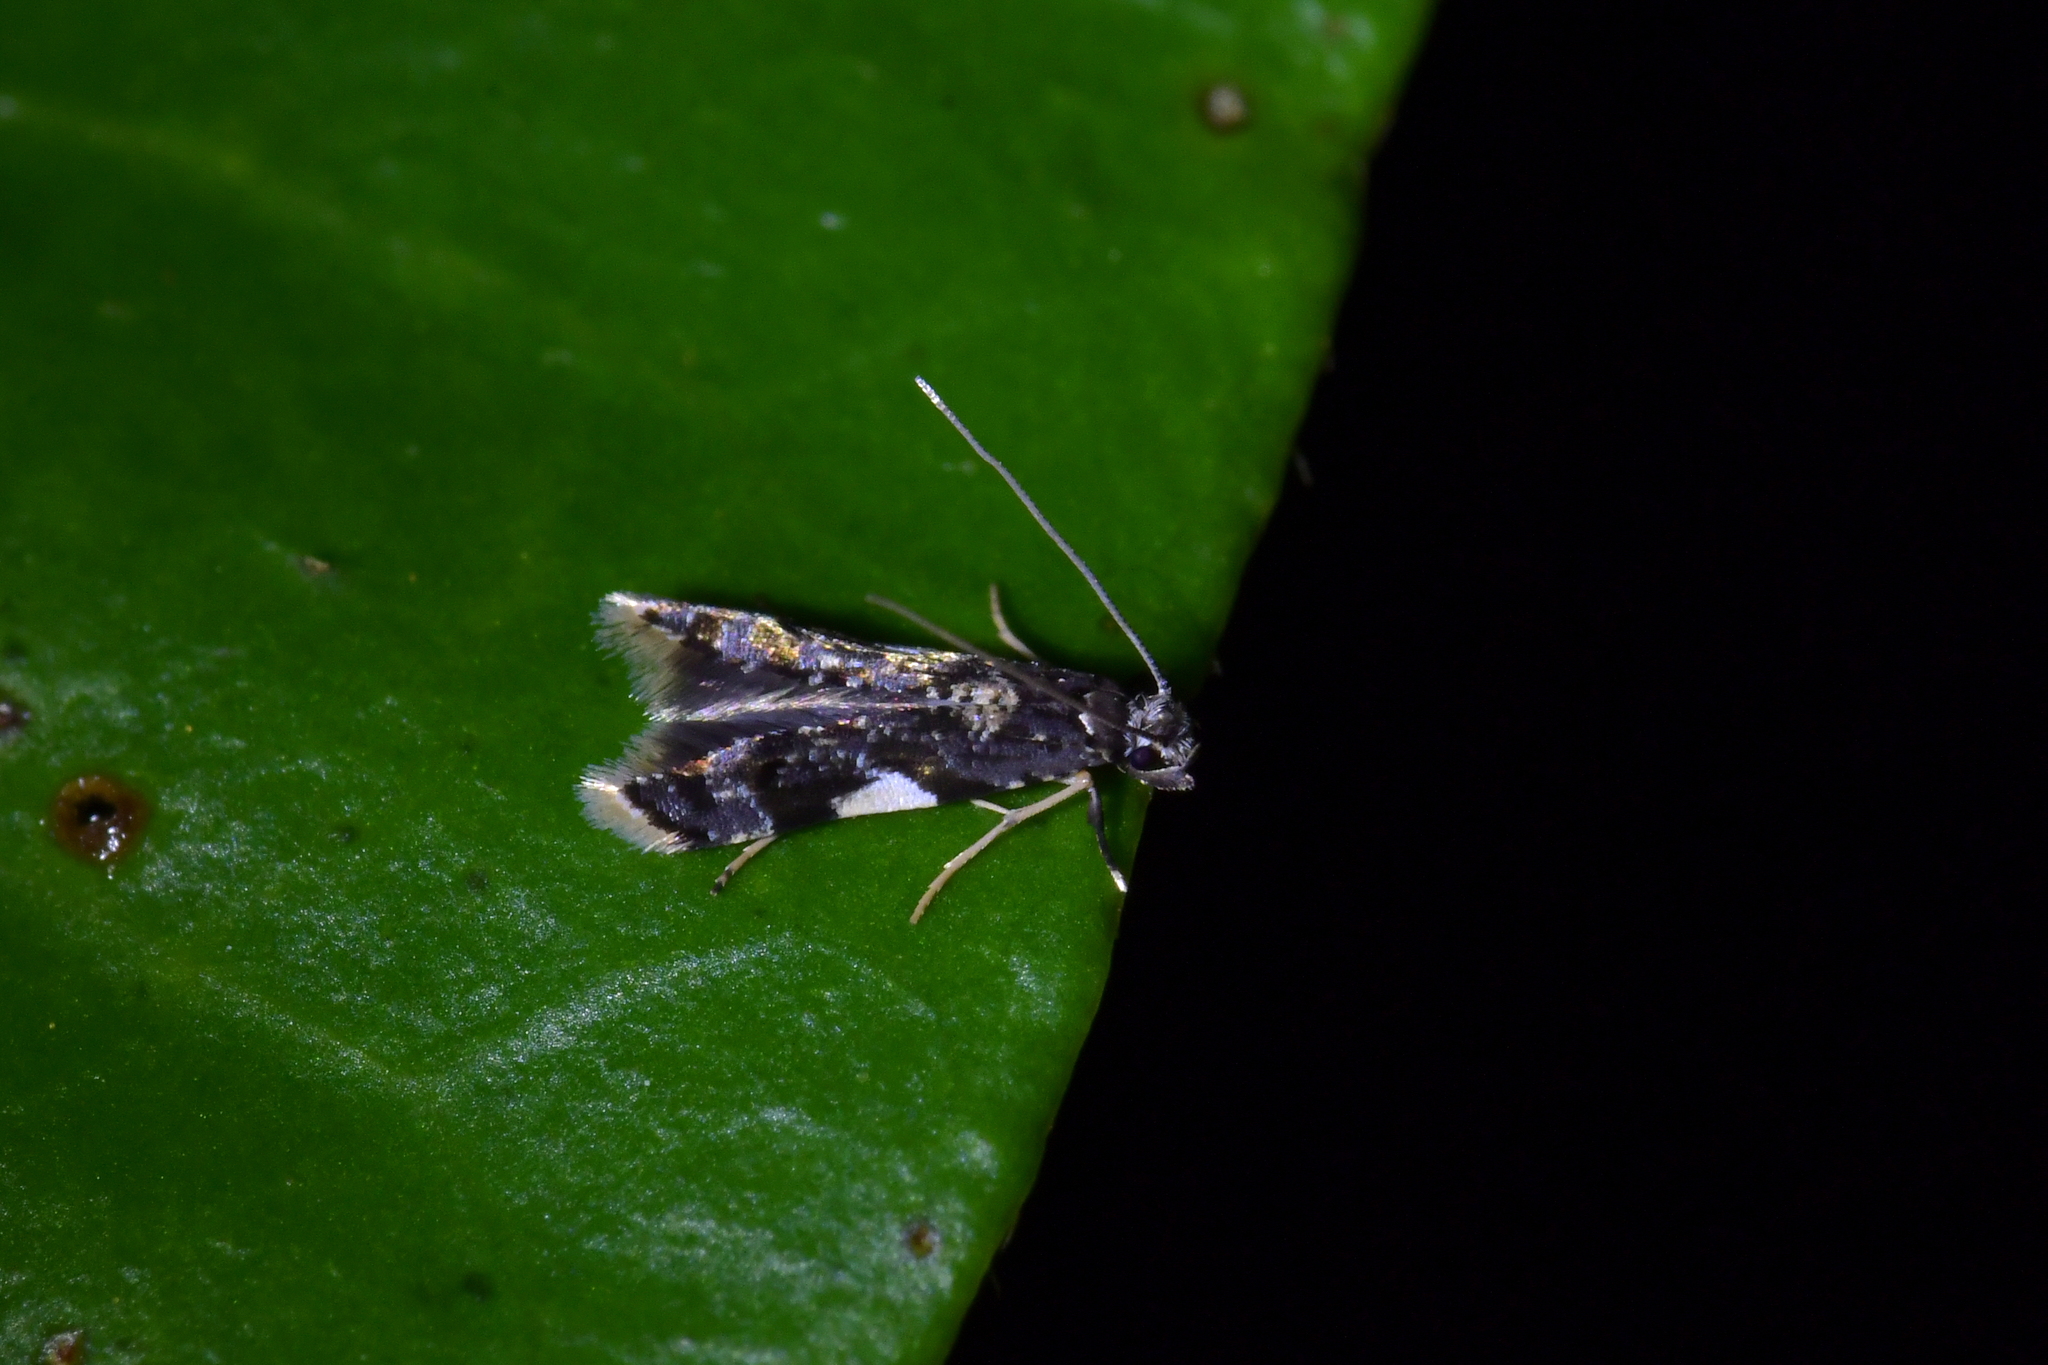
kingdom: Animalia
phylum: Arthropoda
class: Insecta
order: Lepidoptera
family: Tineidae
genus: Habrophila
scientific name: Habrophila compseuta
